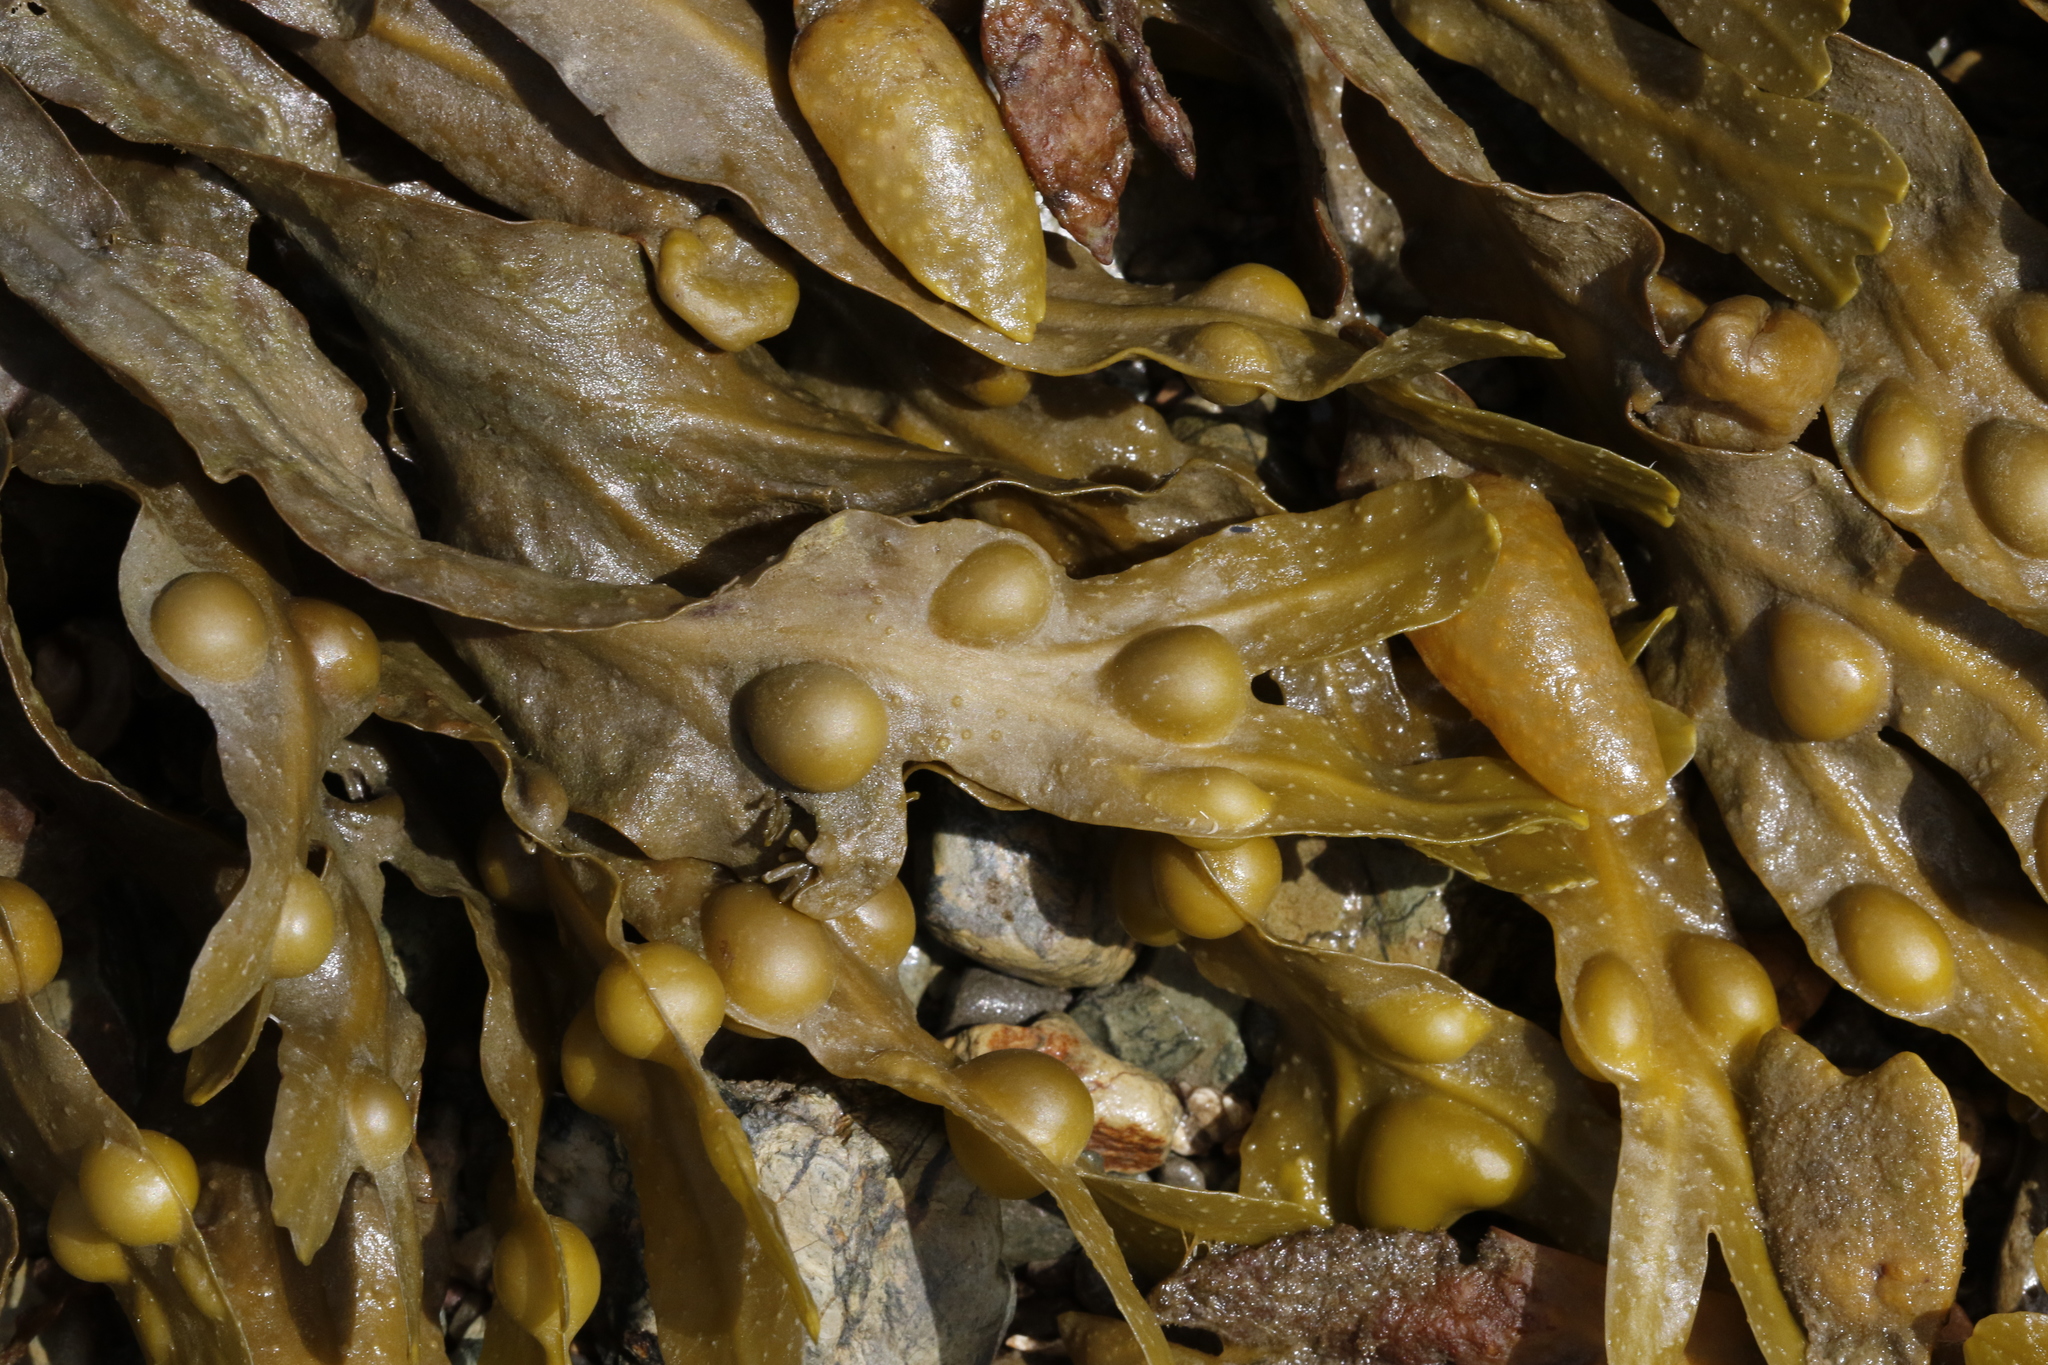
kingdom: Chromista
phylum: Ochrophyta
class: Phaeophyceae
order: Fucales
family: Fucaceae
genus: Fucus
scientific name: Fucus vesiculosus
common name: Bladder wrack
